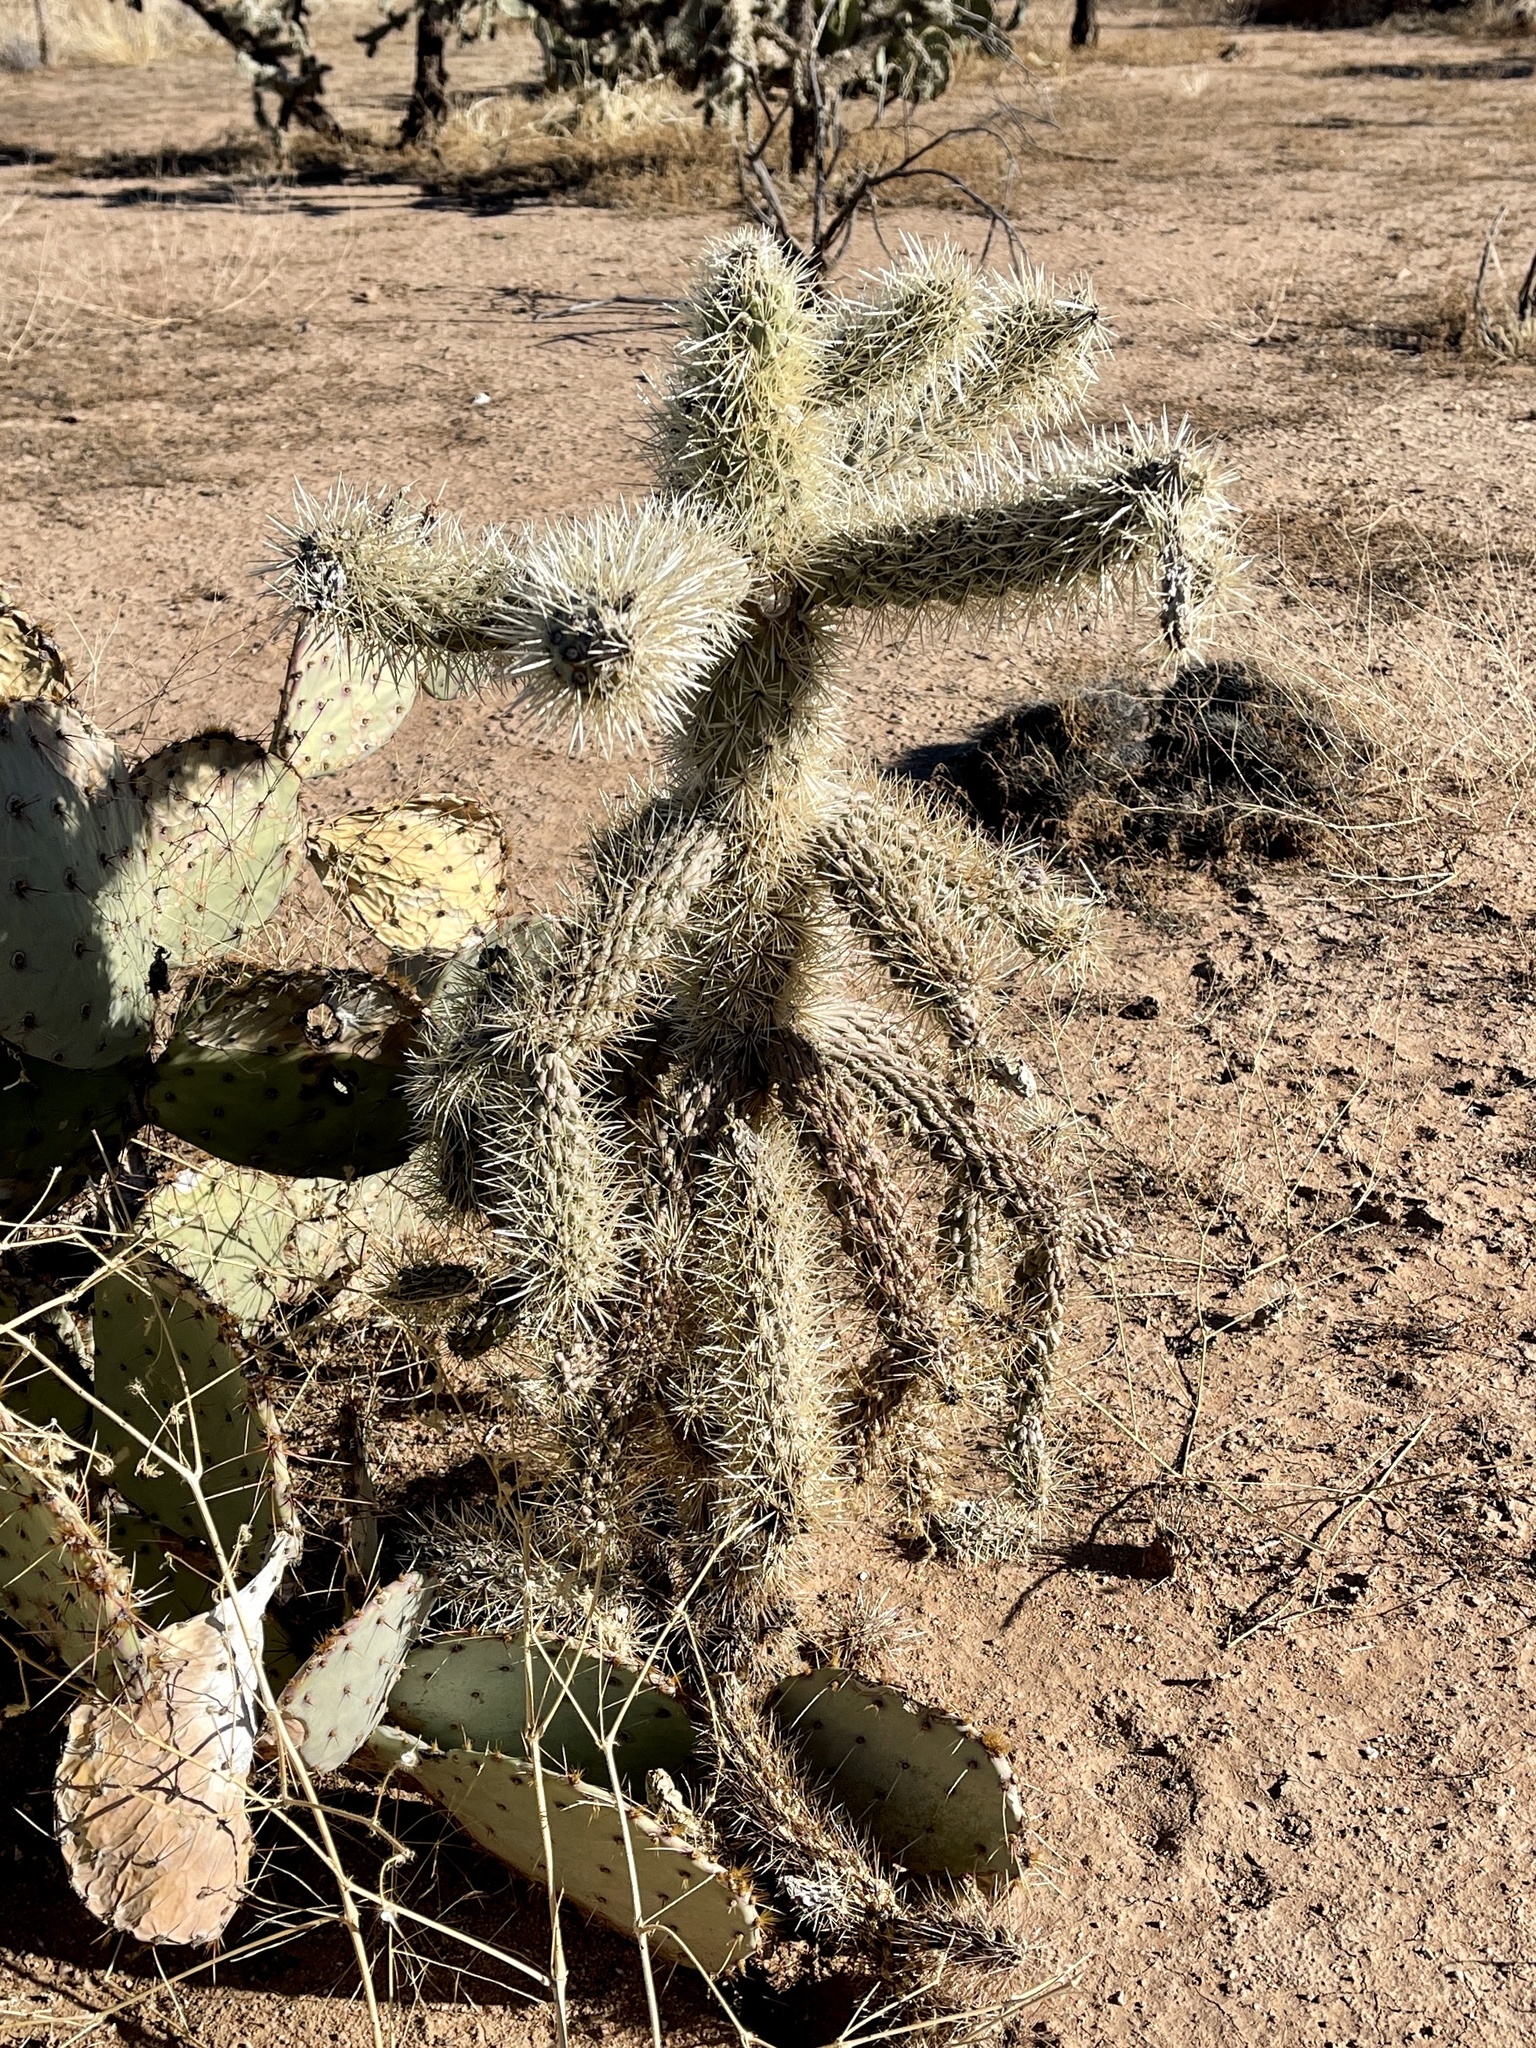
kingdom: Plantae
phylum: Tracheophyta
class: Magnoliopsida
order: Caryophyllales
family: Cactaceae
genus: Cylindropuntia
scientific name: Cylindropuntia fulgida
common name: Jumping cholla
